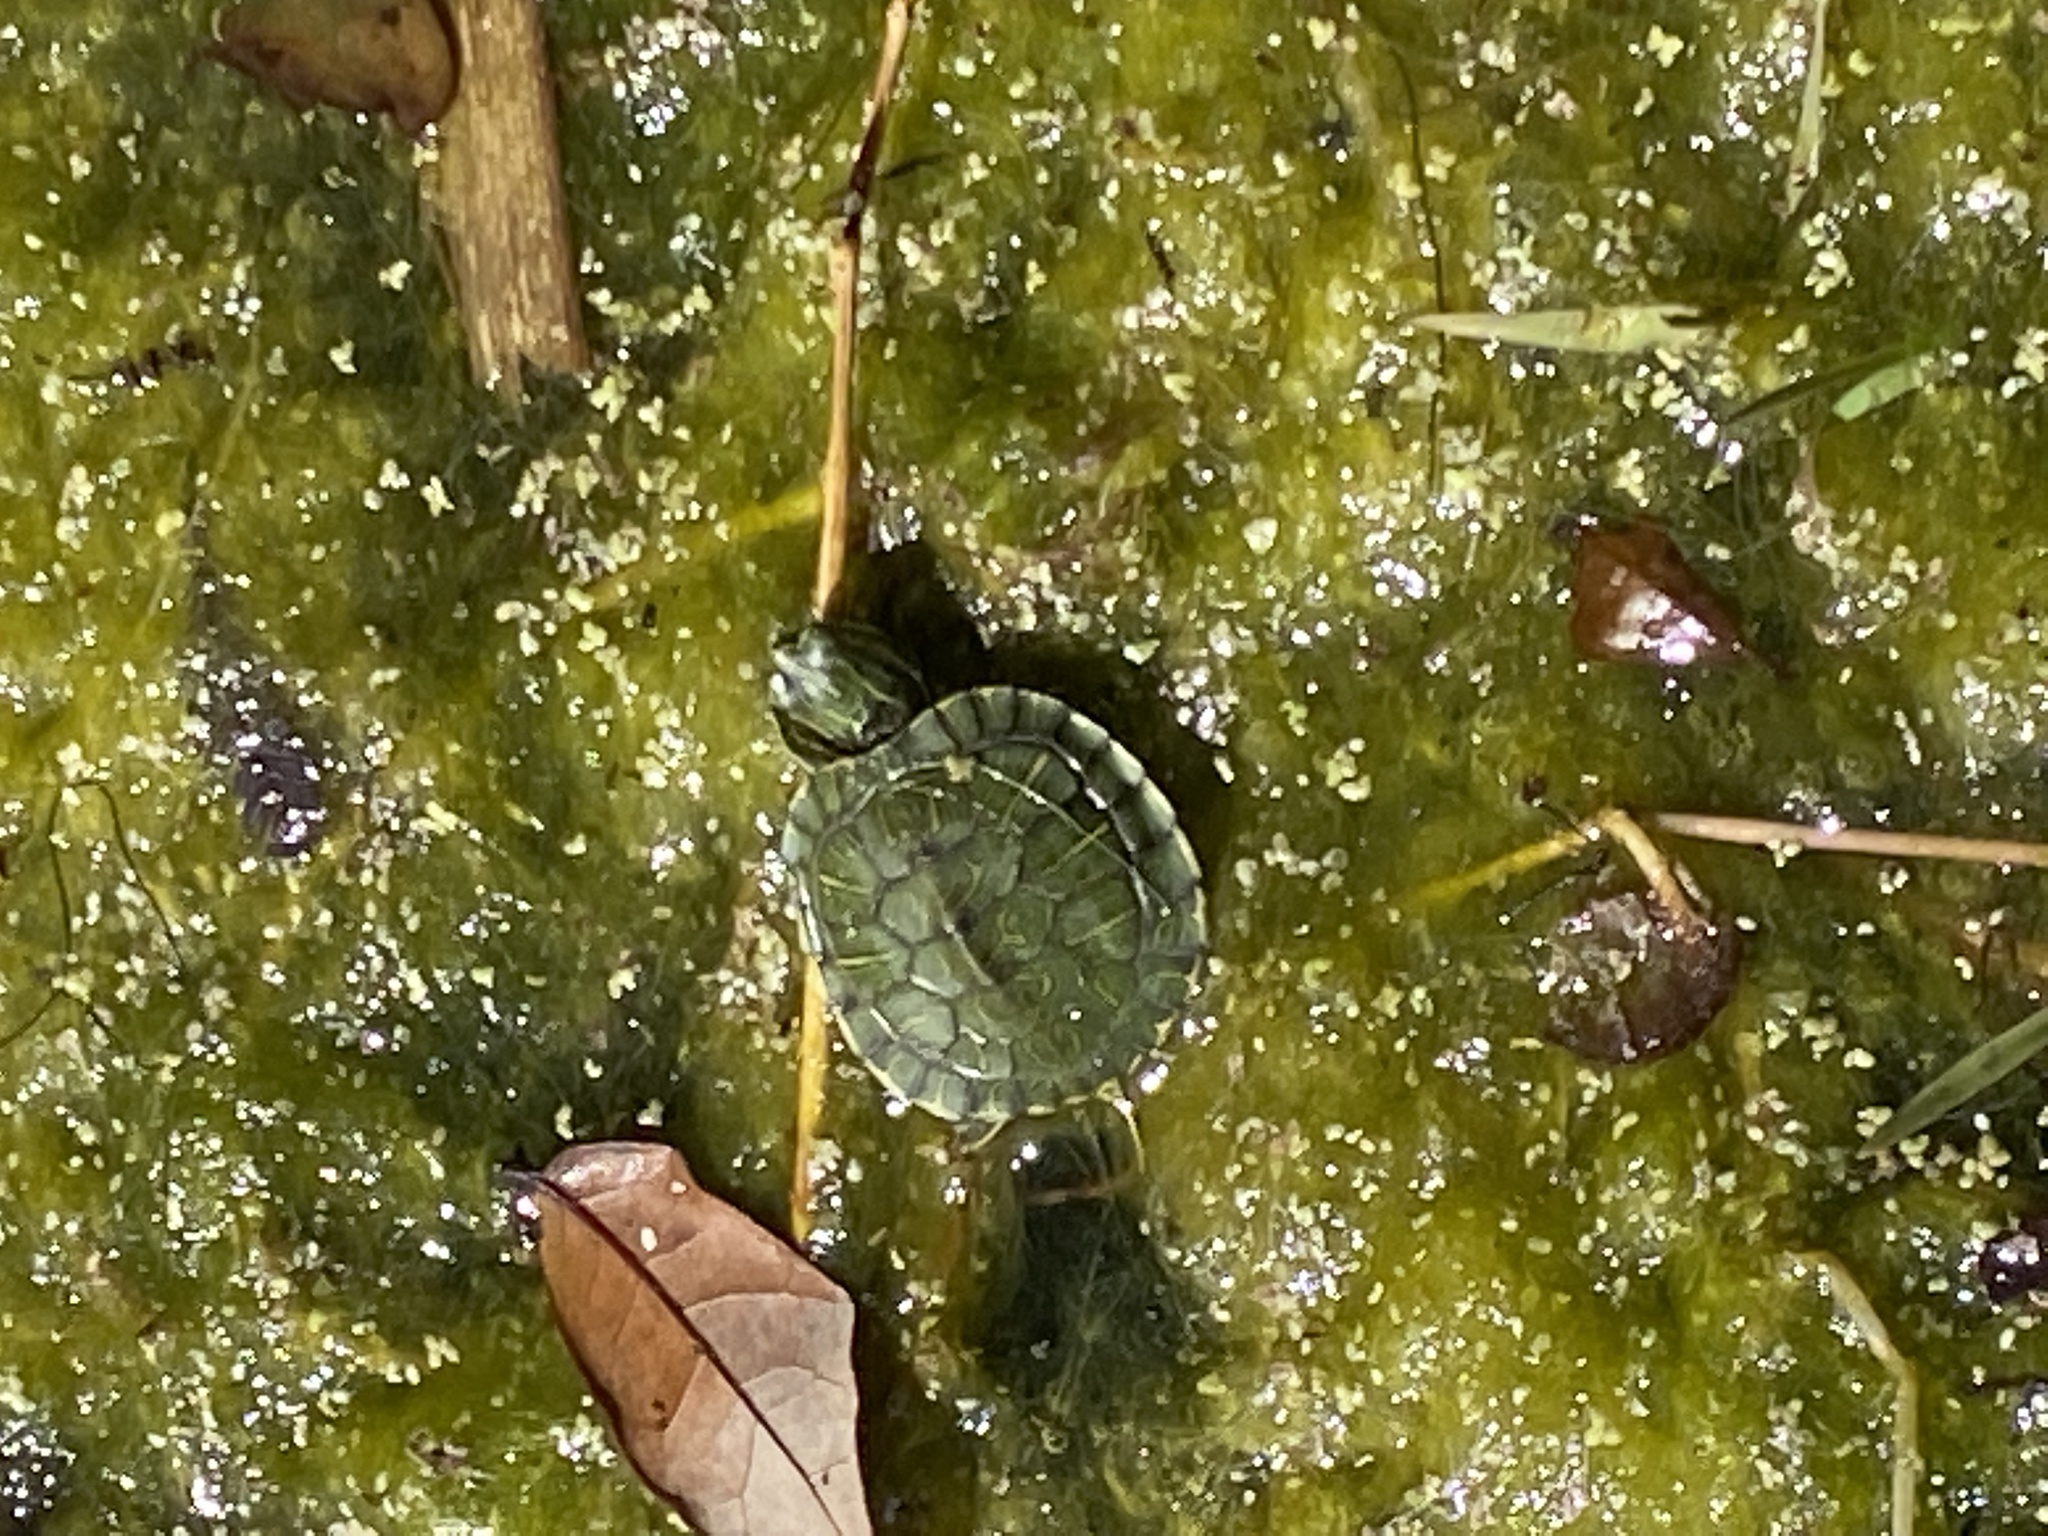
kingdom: Animalia
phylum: Chordata
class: Testudines
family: Emydidae
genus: Trachemys
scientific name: Trachemys scripta
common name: Slider
